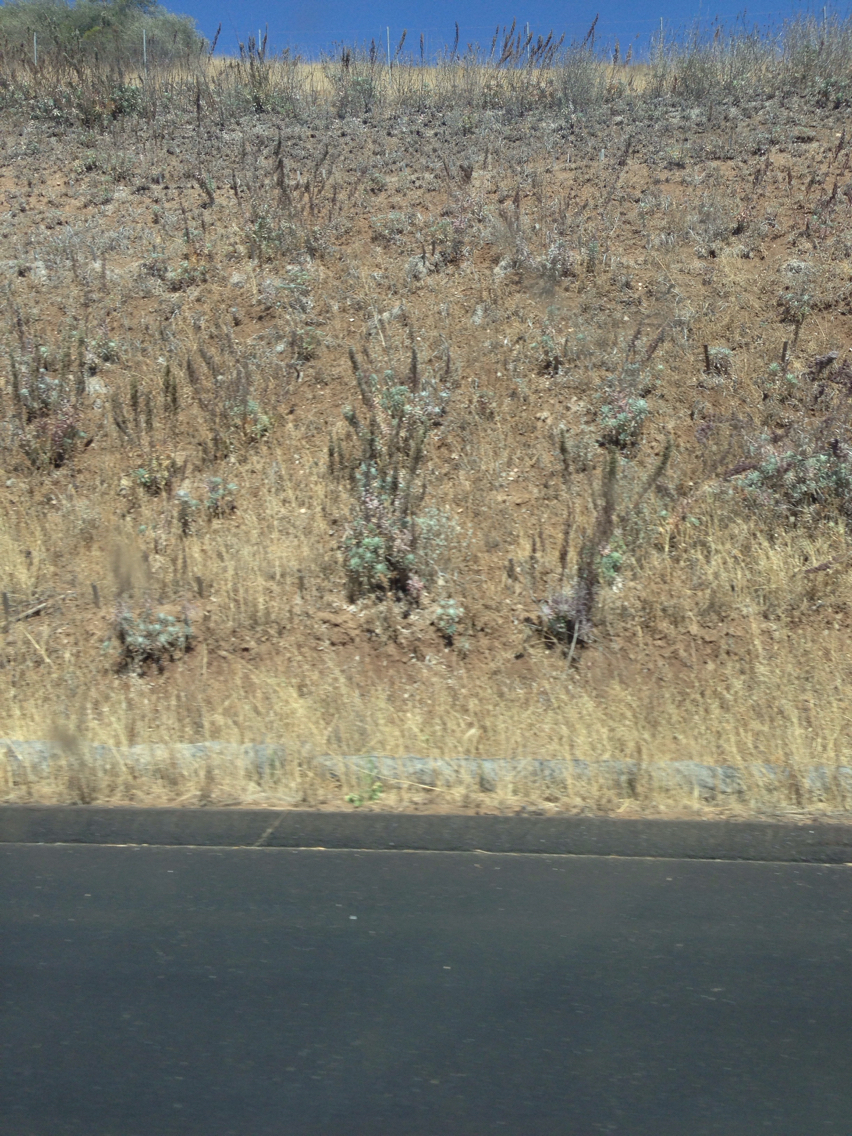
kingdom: Plantae
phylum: Tracheophyta
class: Magnoliopsida
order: Lamiales
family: Lamiaceae
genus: Salvia
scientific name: Salvia apiana
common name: White sage
